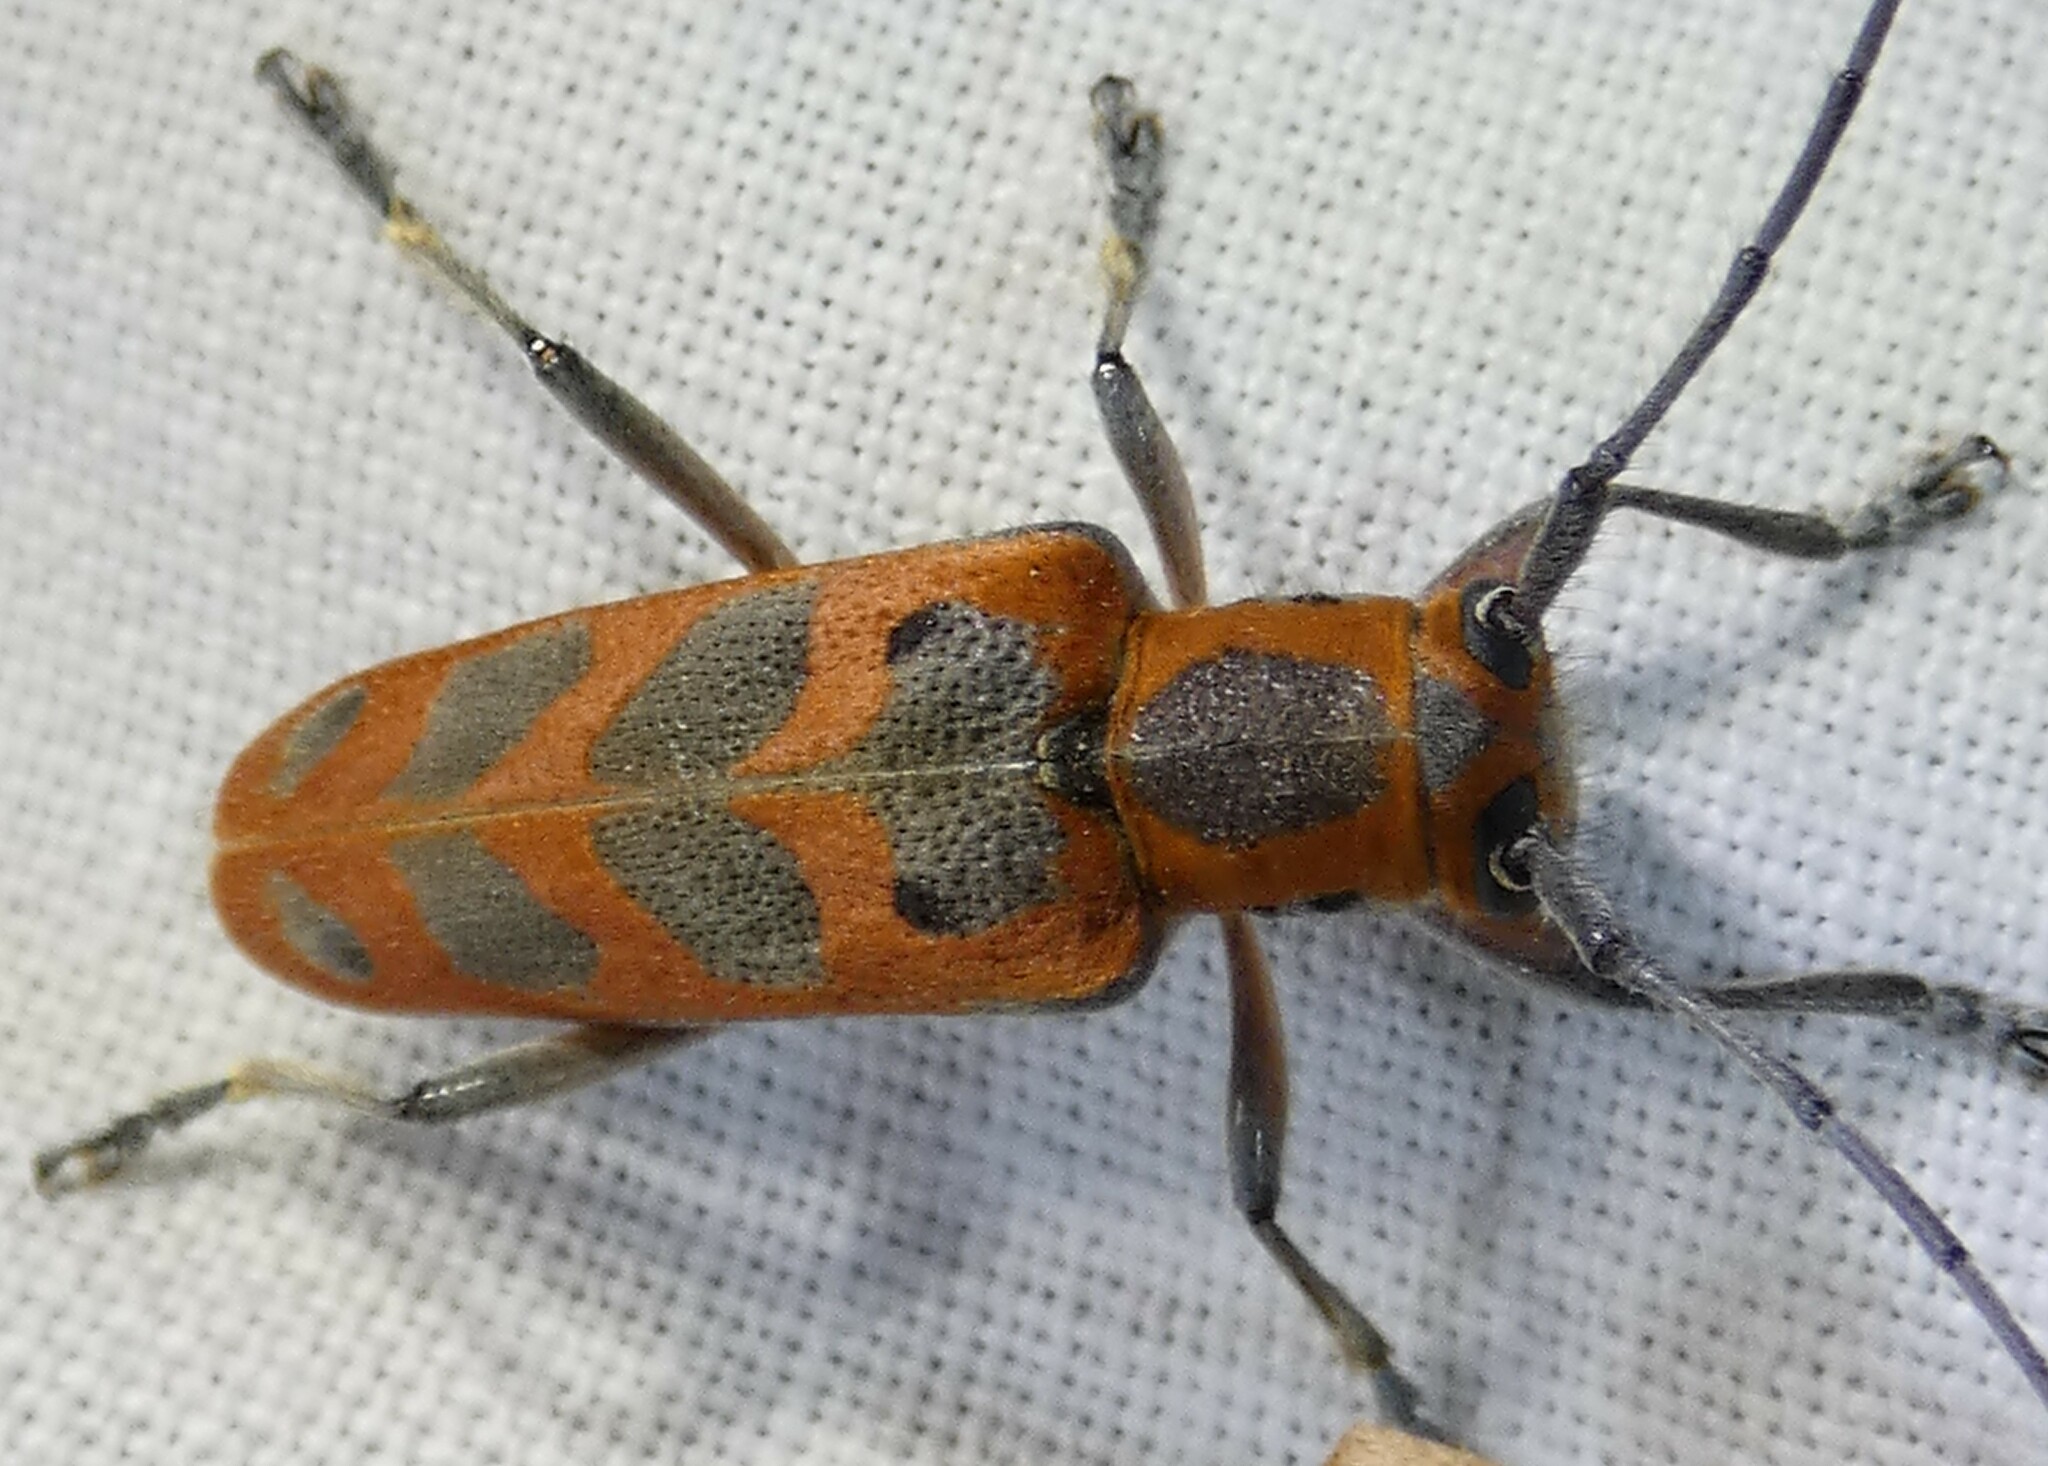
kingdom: Animalia
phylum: Arthropoda
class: Insecta
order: Coleoptera
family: Cerambycidae
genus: Saperda
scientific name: Saperda tridentata
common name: Elm borer
